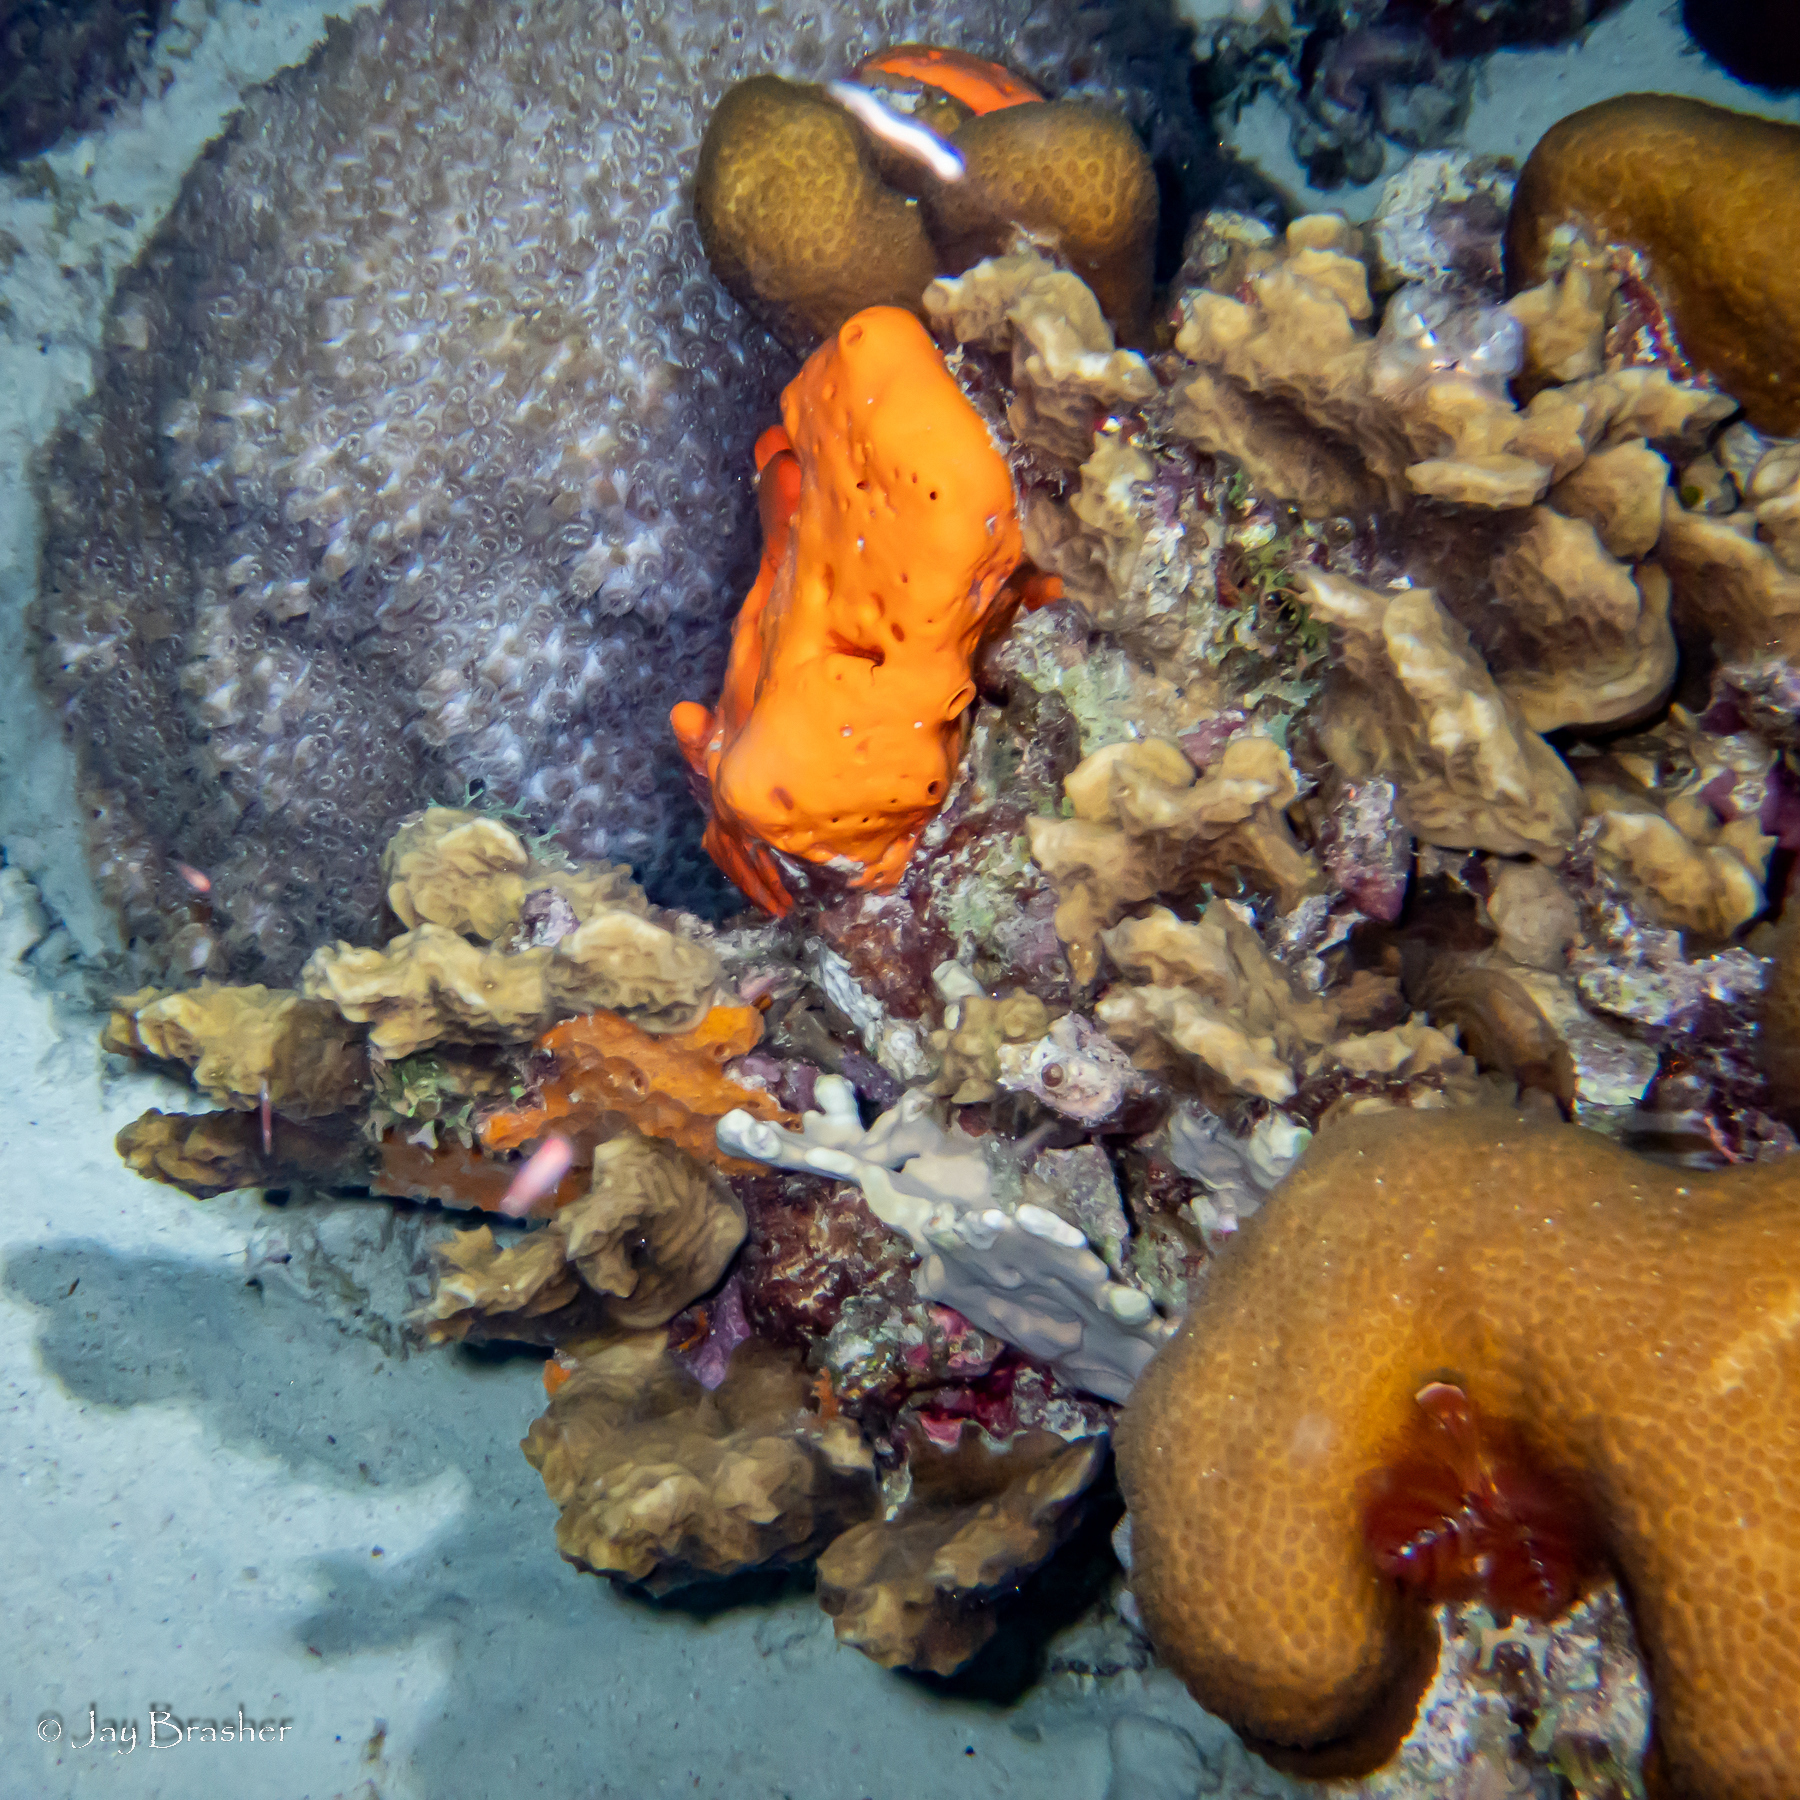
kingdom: Animalia
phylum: Porifera
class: Demospongiae
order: Agelasida
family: Agelasidae
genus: Agelas
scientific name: Agelas sventres
